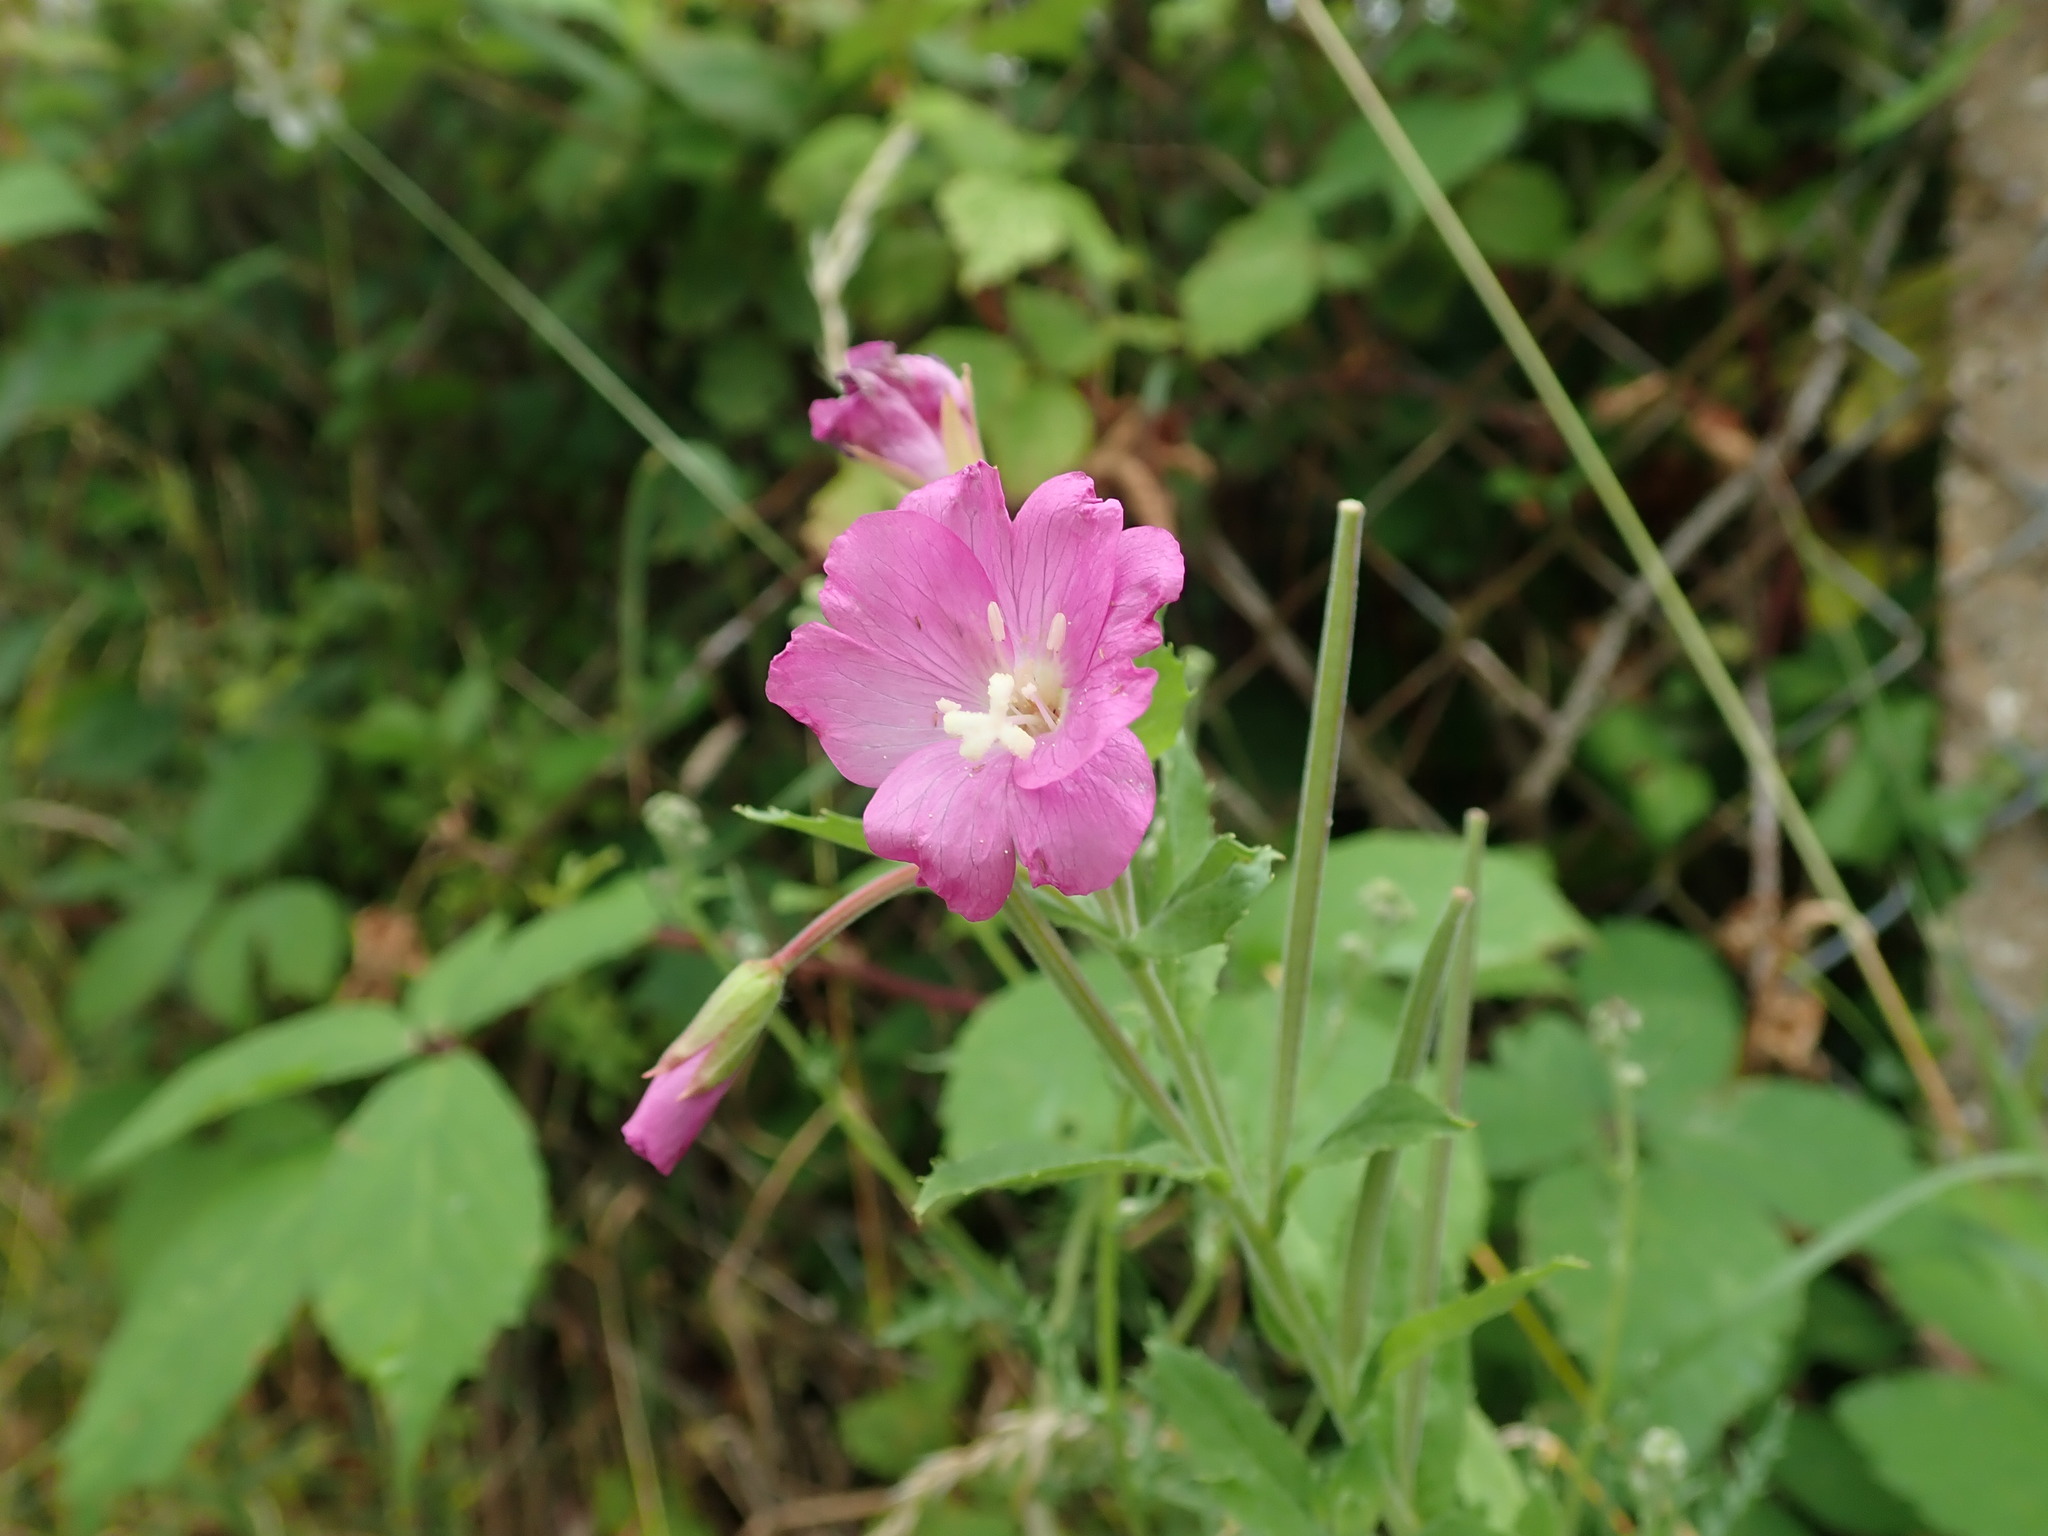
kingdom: Plantae
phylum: Tracheophyta
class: Magnoliopsida
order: Myrtales
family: Onagraceae
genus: Epilobium
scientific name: Epilobium hirsutum
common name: Great willowherb
